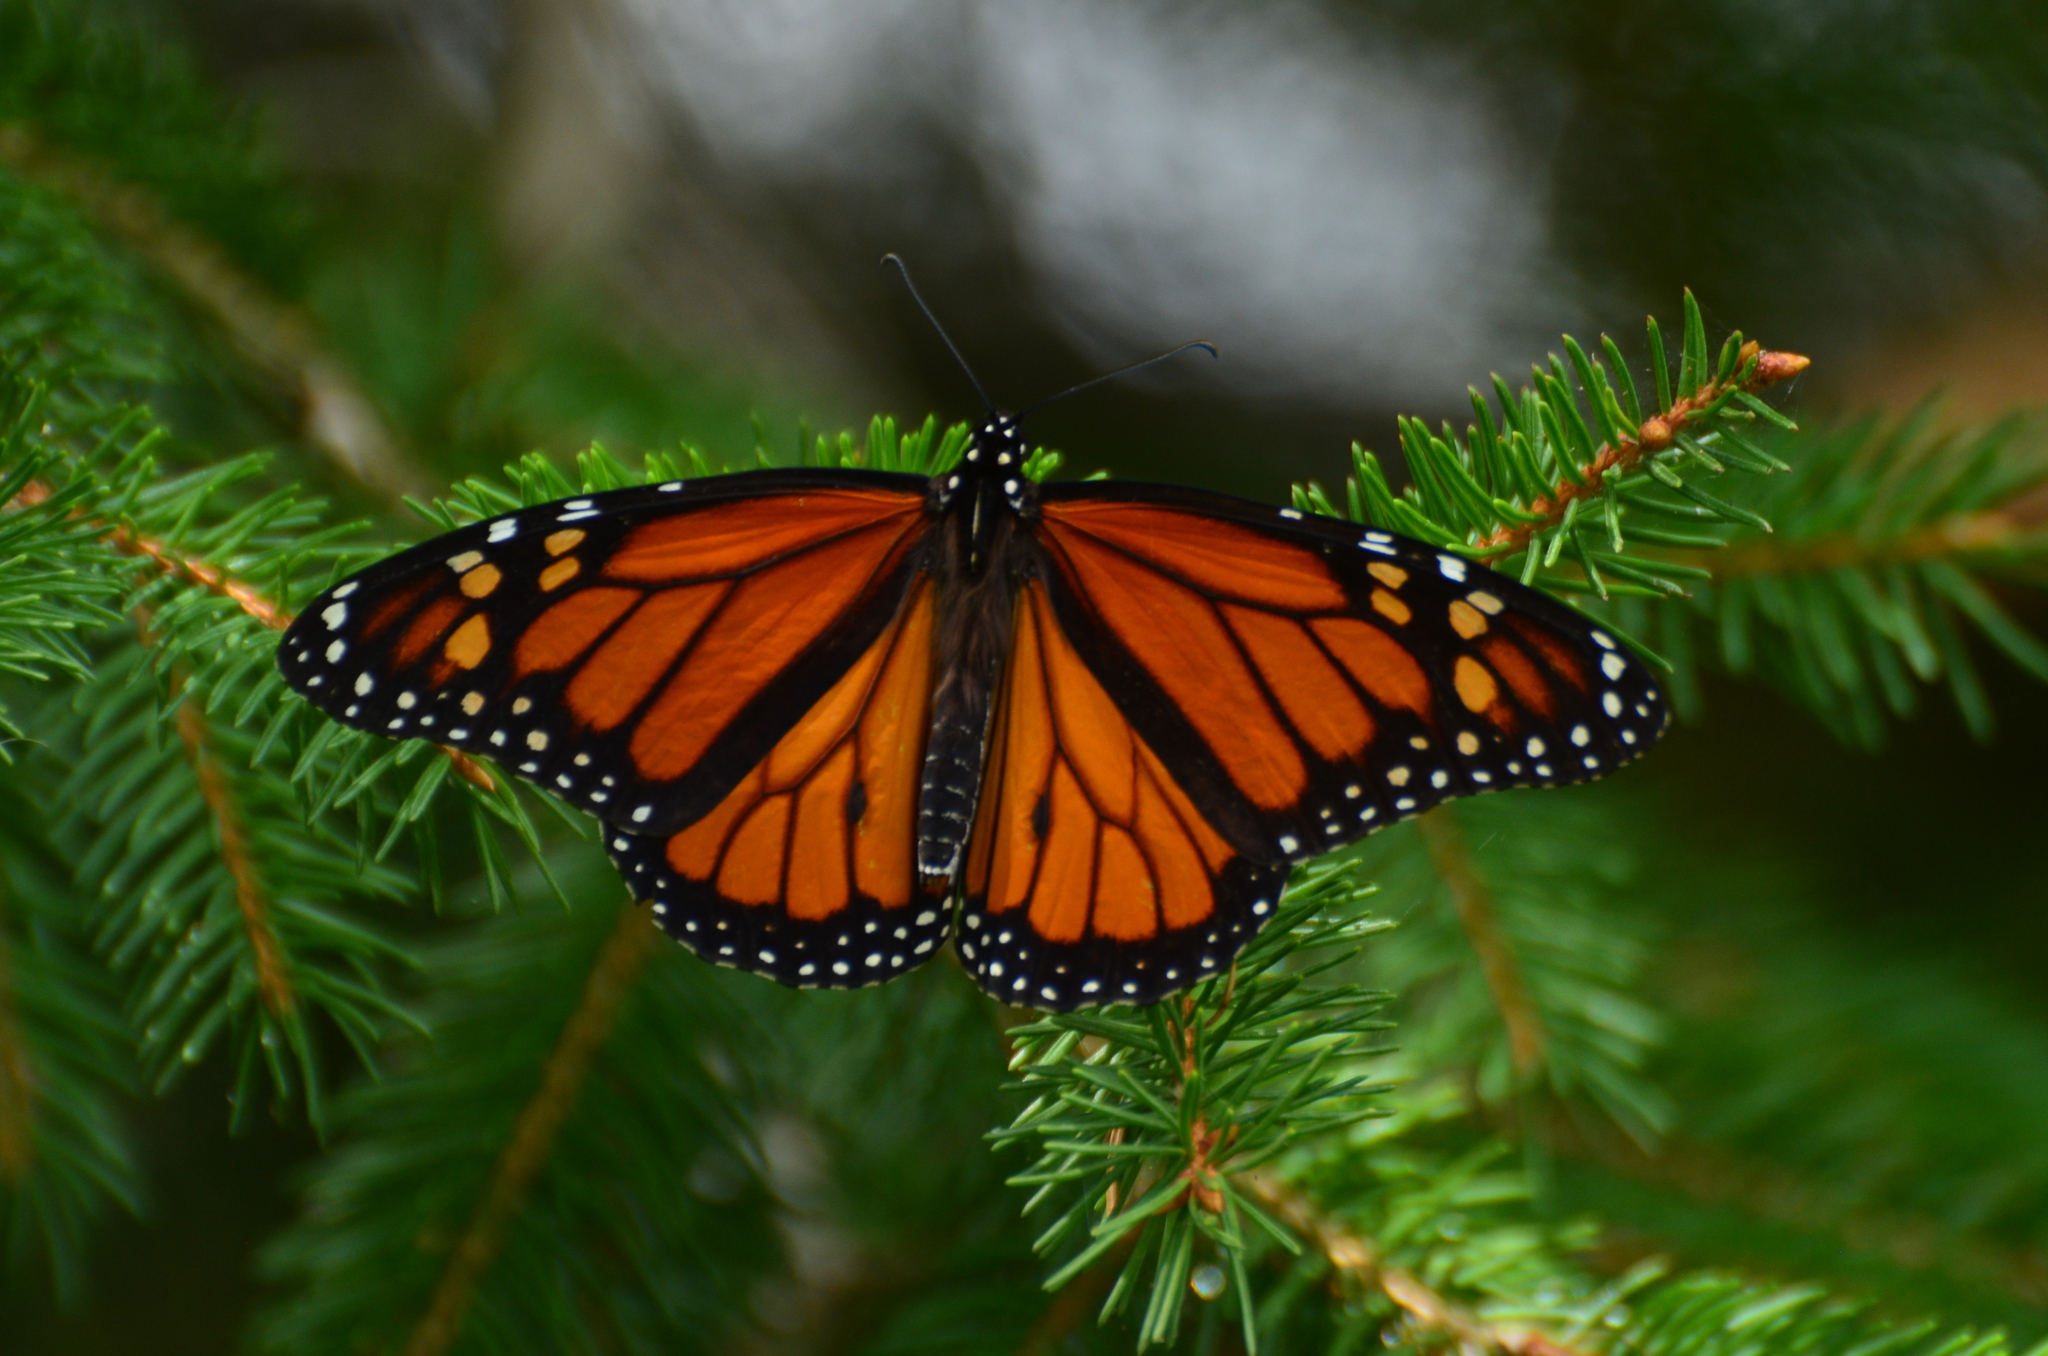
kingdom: Animalia
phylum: Arthropoda
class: Insecta
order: Lepidoptera
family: Nymphalidae
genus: Danaus
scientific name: Danaus plexippus
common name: Monarch
